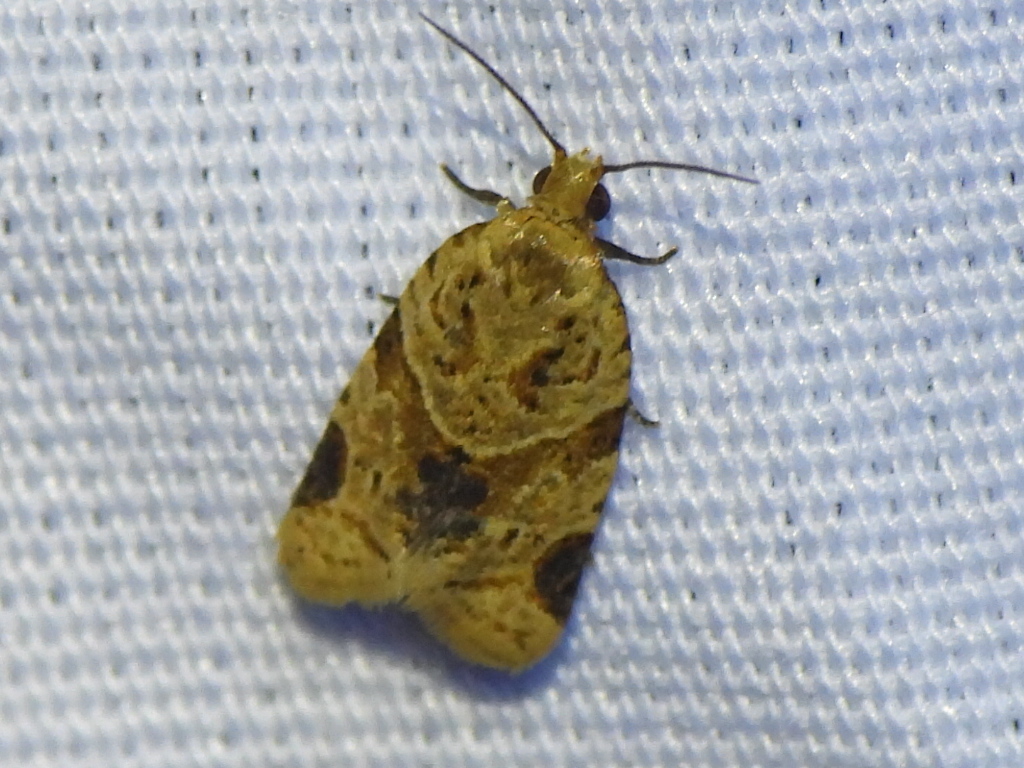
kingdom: Animalia
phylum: Arthropoda
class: Insecta
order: Lepidoptera
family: Tortricidae
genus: Clepsis
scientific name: Clepsis peritana
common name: Garden tortrix
